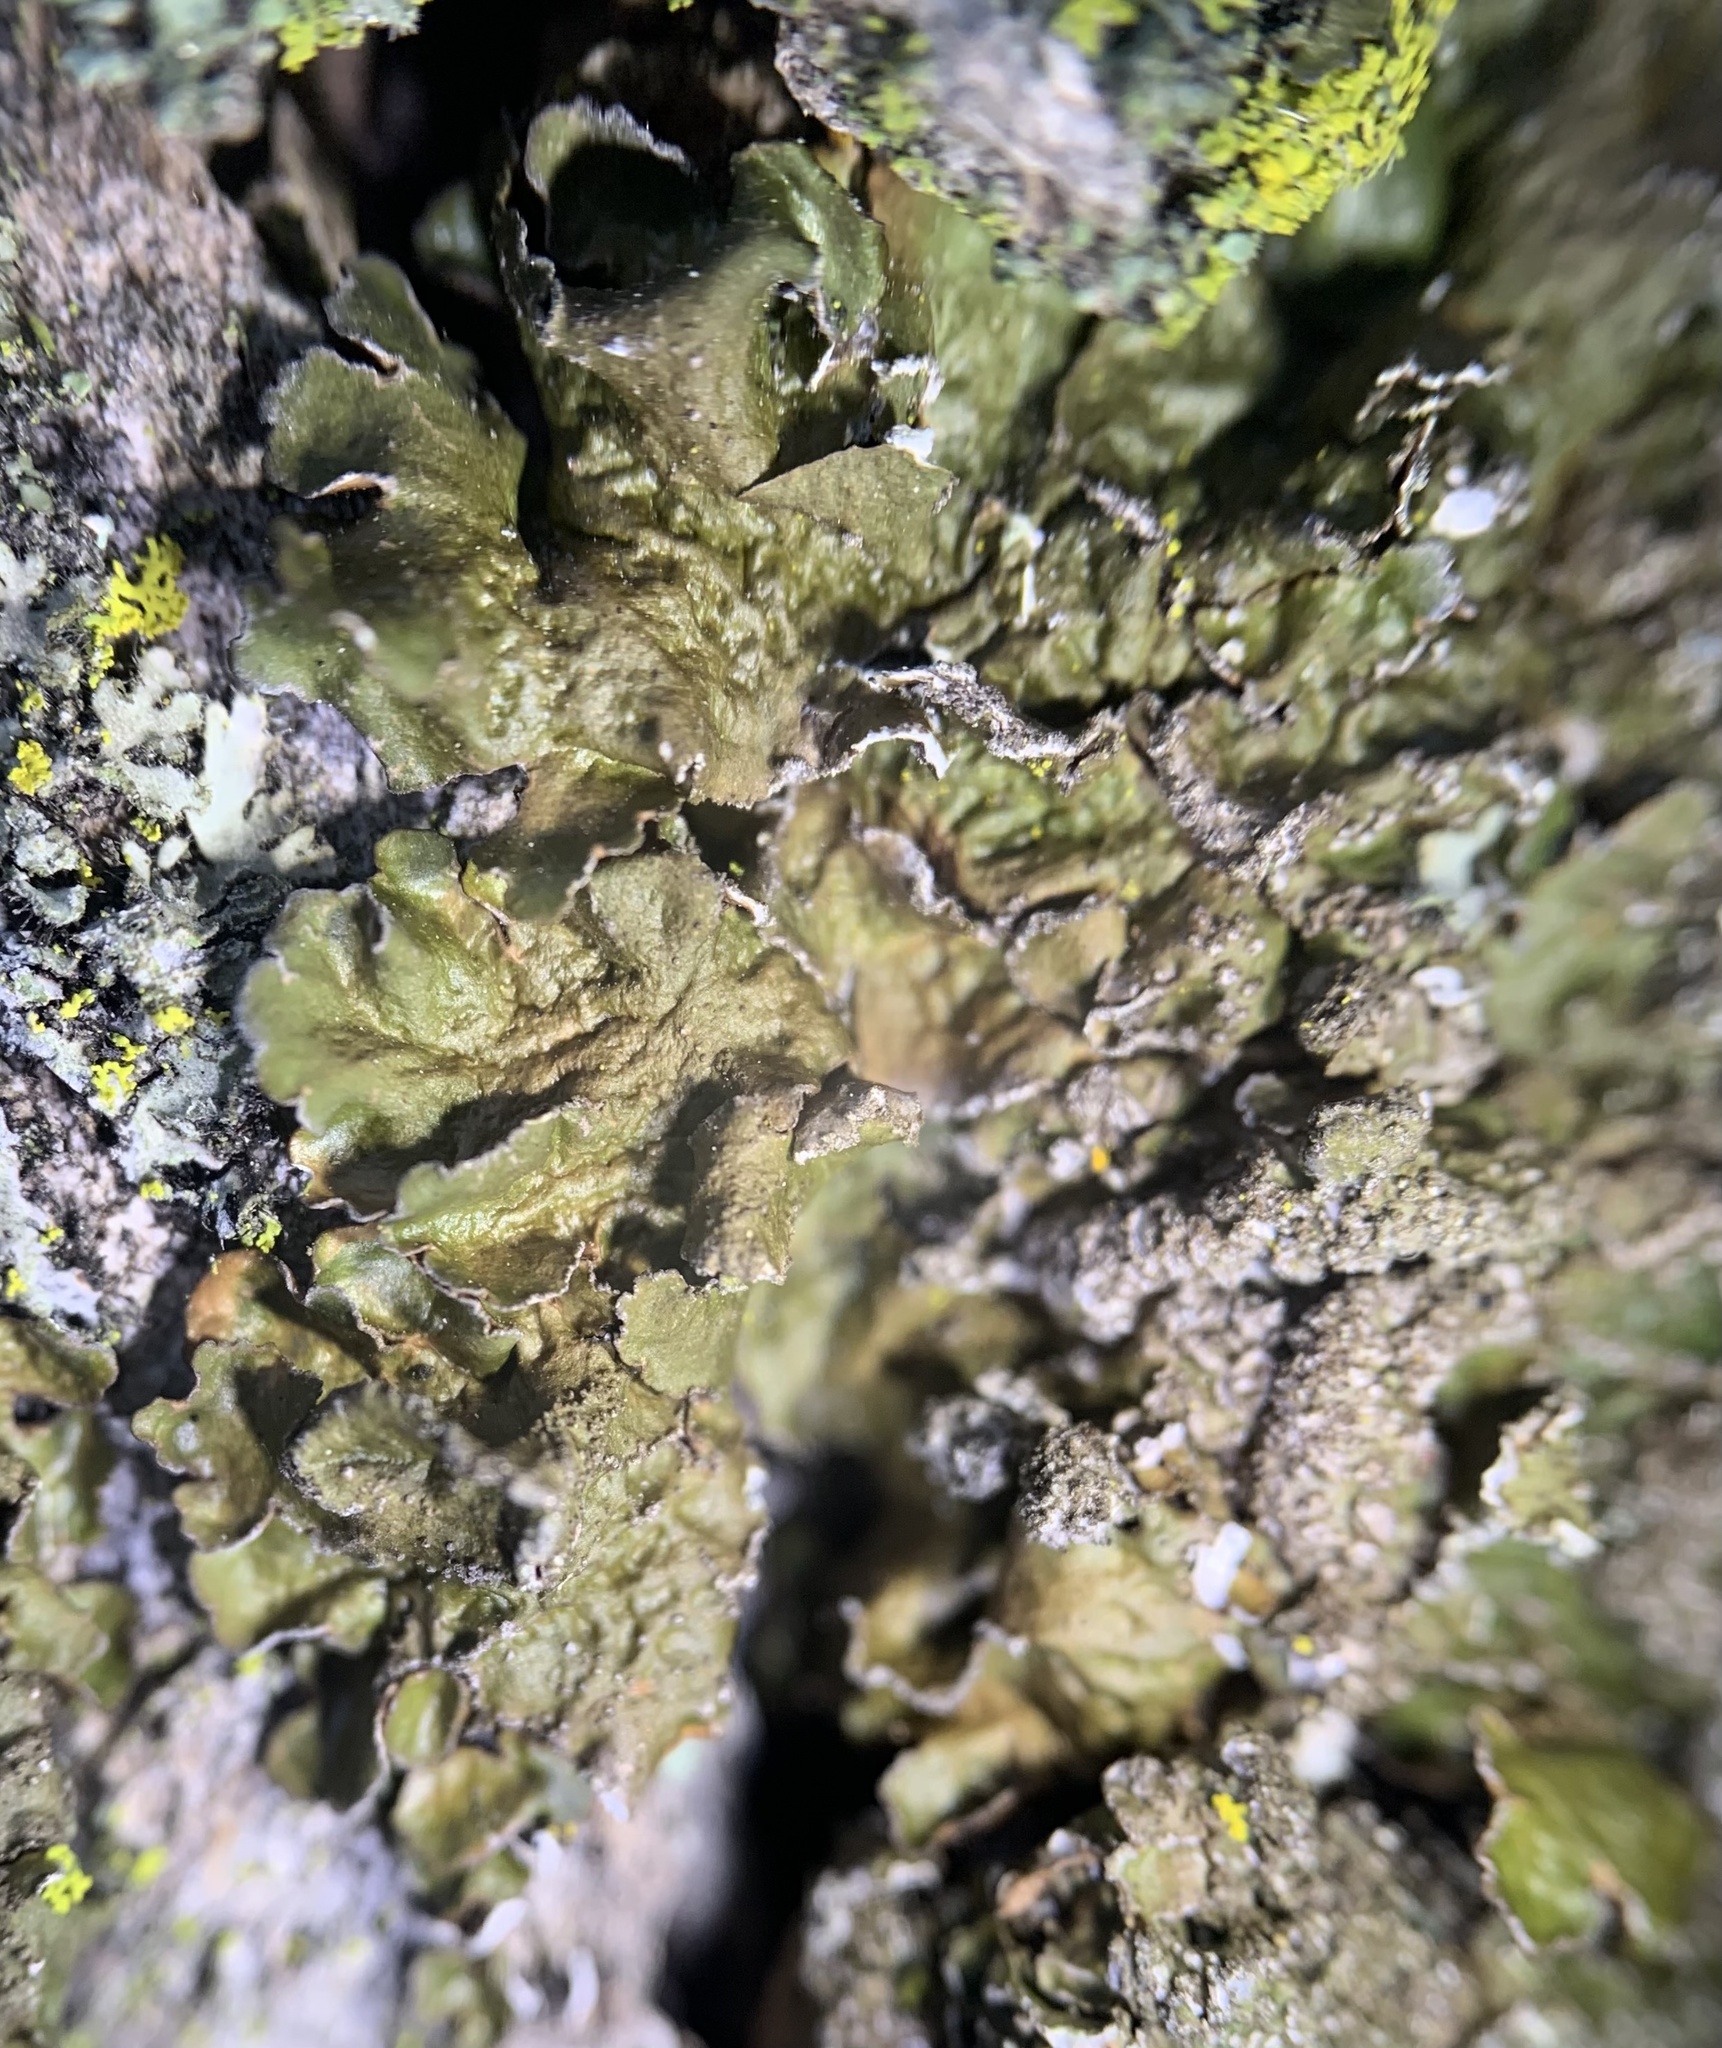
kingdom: Fungi
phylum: Ascomycota
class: Lecanoromycetes
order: Lecanorales
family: Parmeliaceae
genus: Melanelixia
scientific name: Melanelixia subargentifera
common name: Whiskered camouflage lichen
